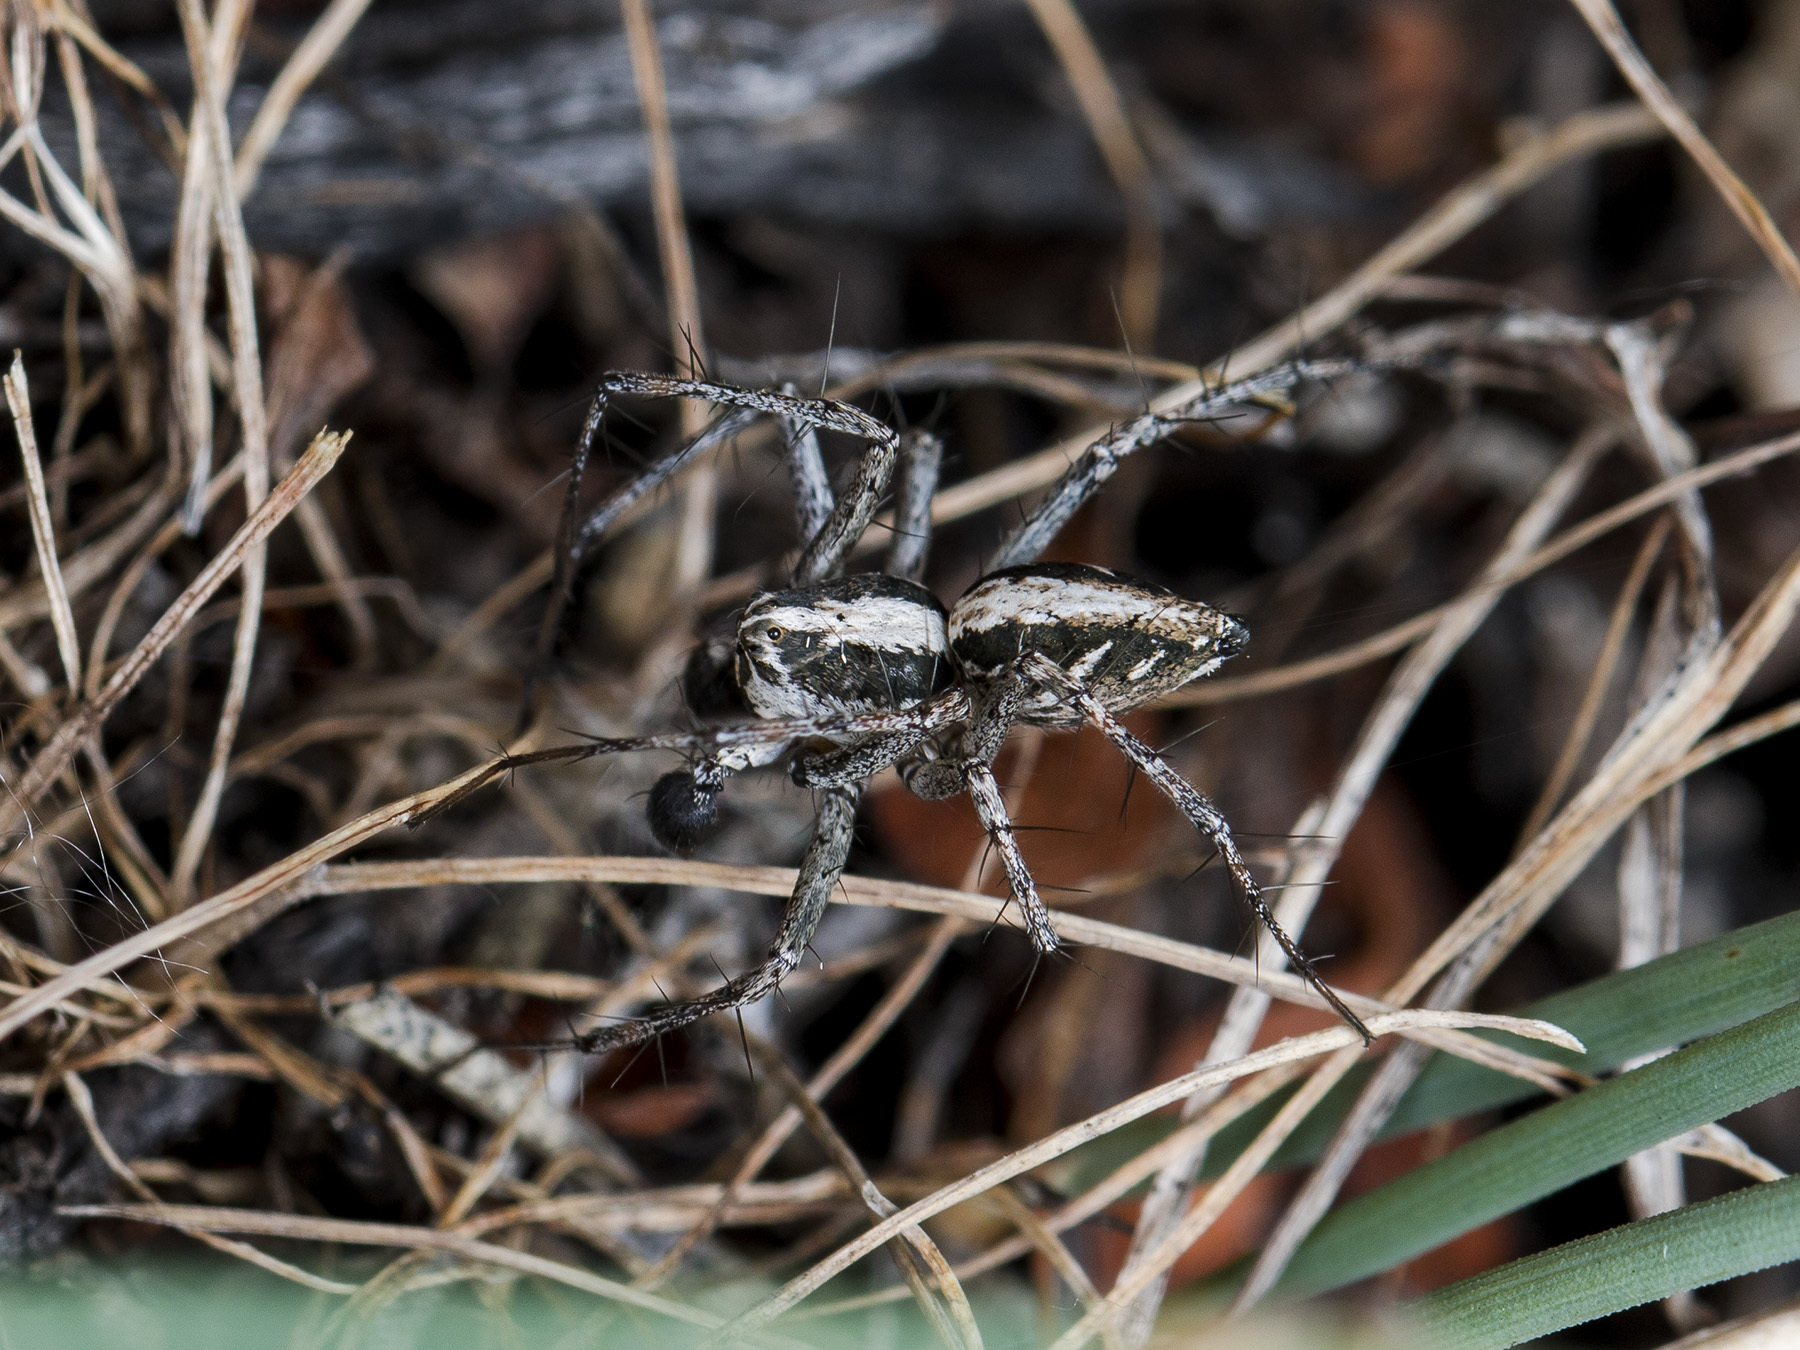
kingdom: Animalia
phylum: Arthropoda
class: Arachnida
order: Araneae
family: Oxyopidae
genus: Oxyopes
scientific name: Oxyopes globifer
